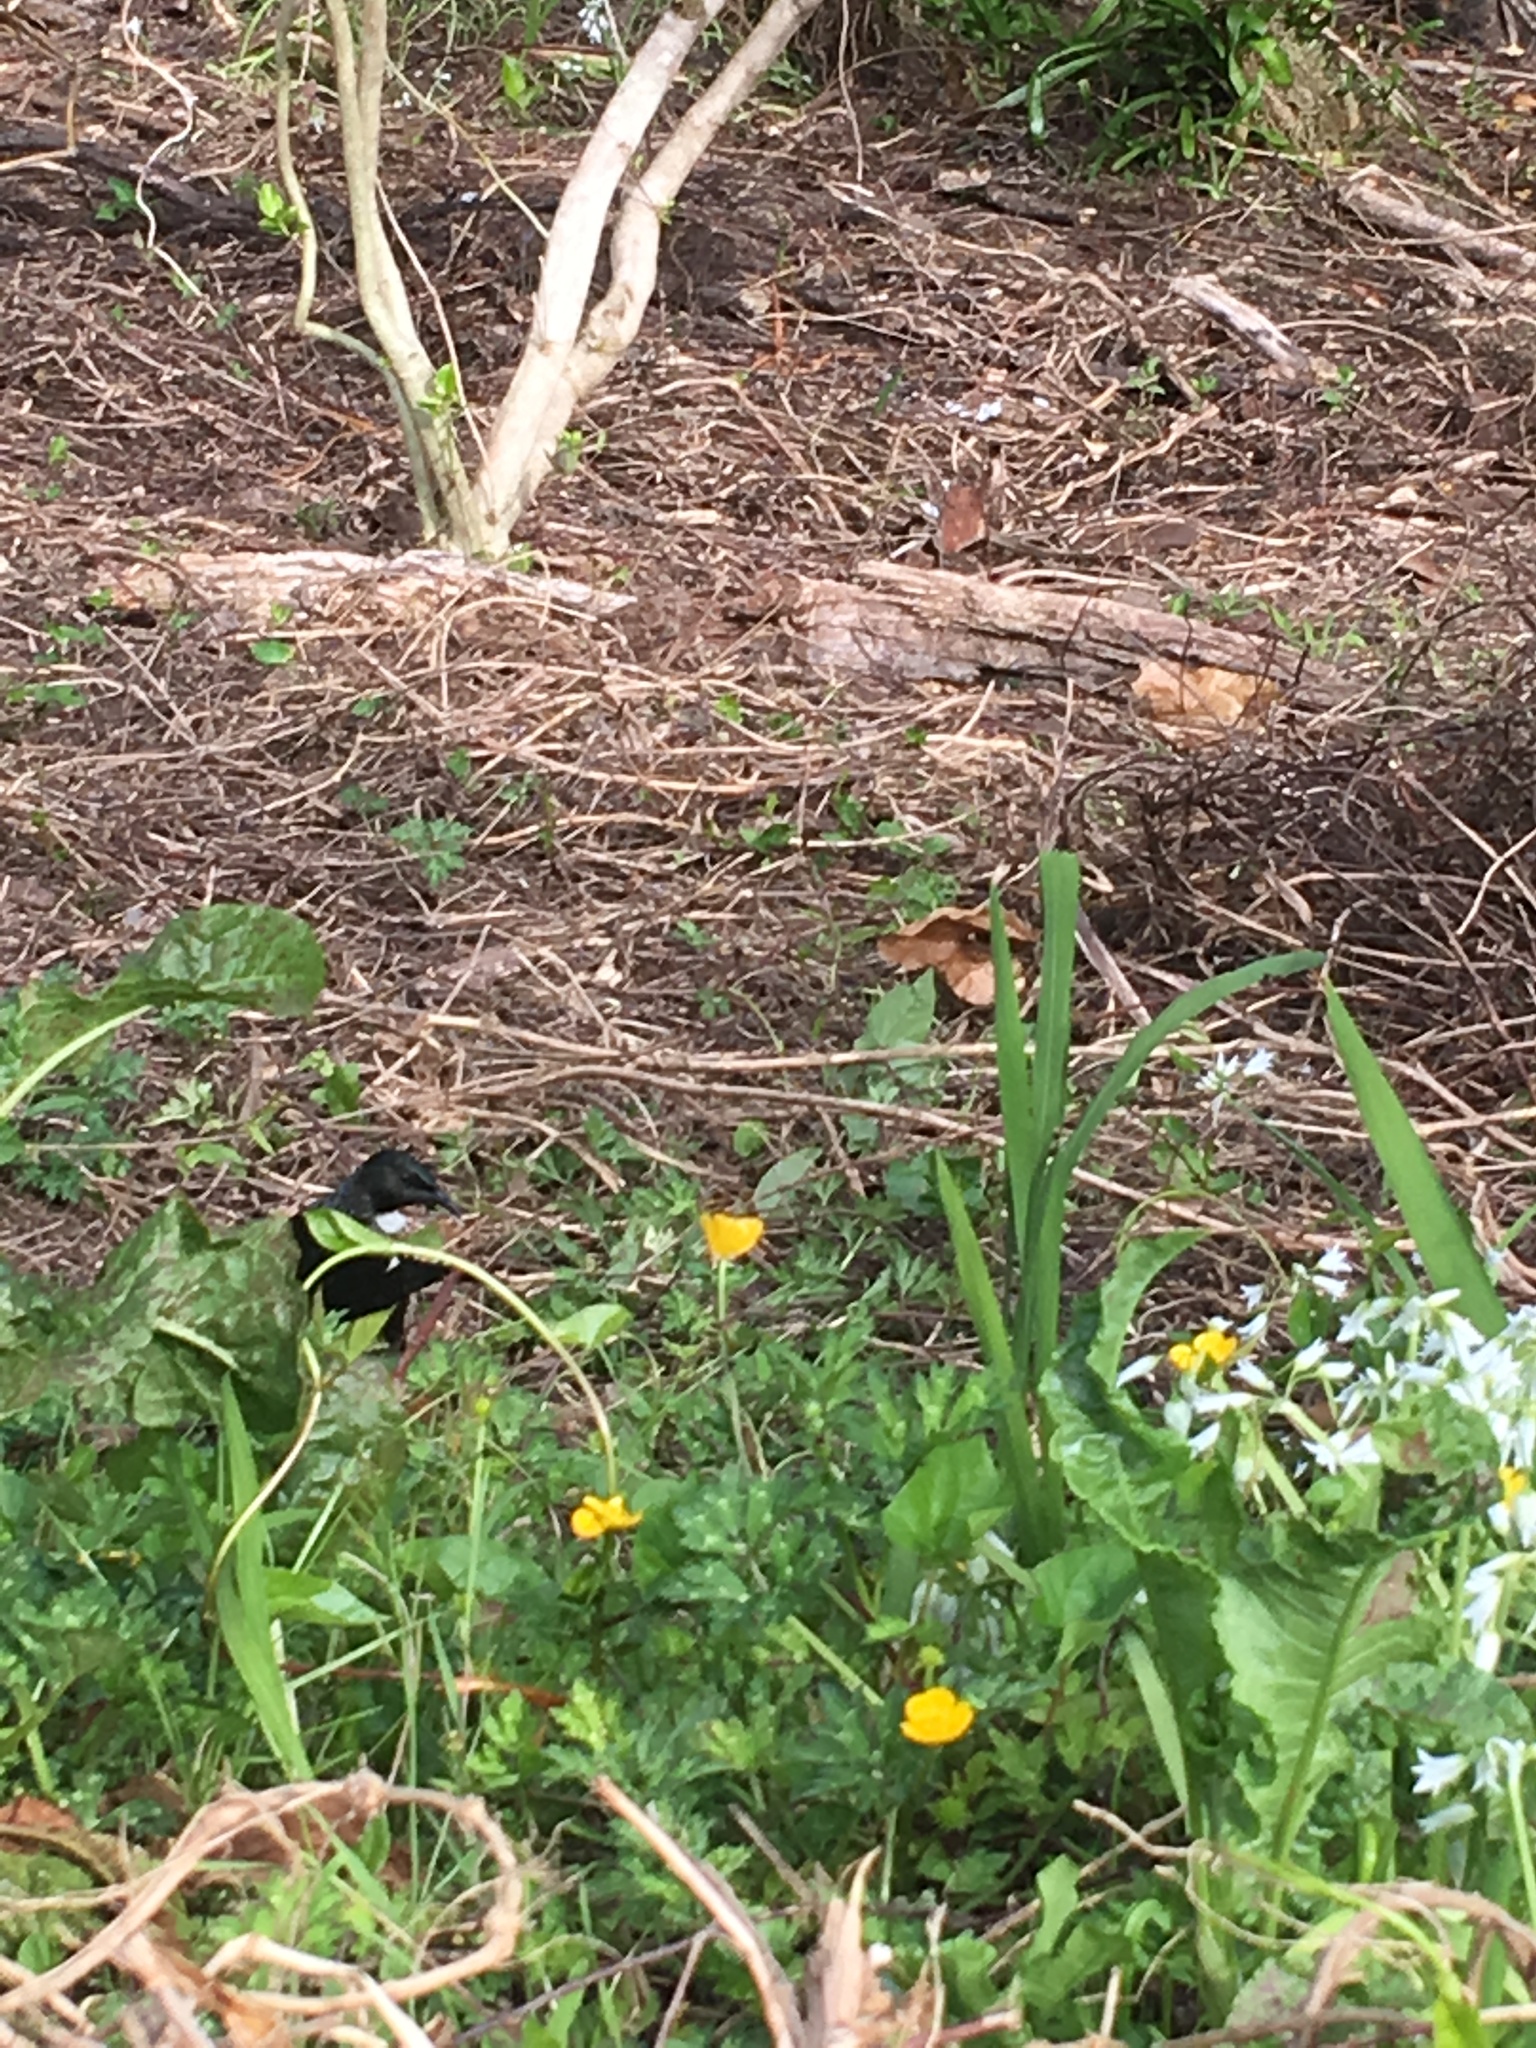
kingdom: Animalia
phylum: Chordata
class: Aves
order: Passeriformes
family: Meliphagidae
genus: Prosthemadera
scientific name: Prosthemadera novaeseelandiae
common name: Tui
